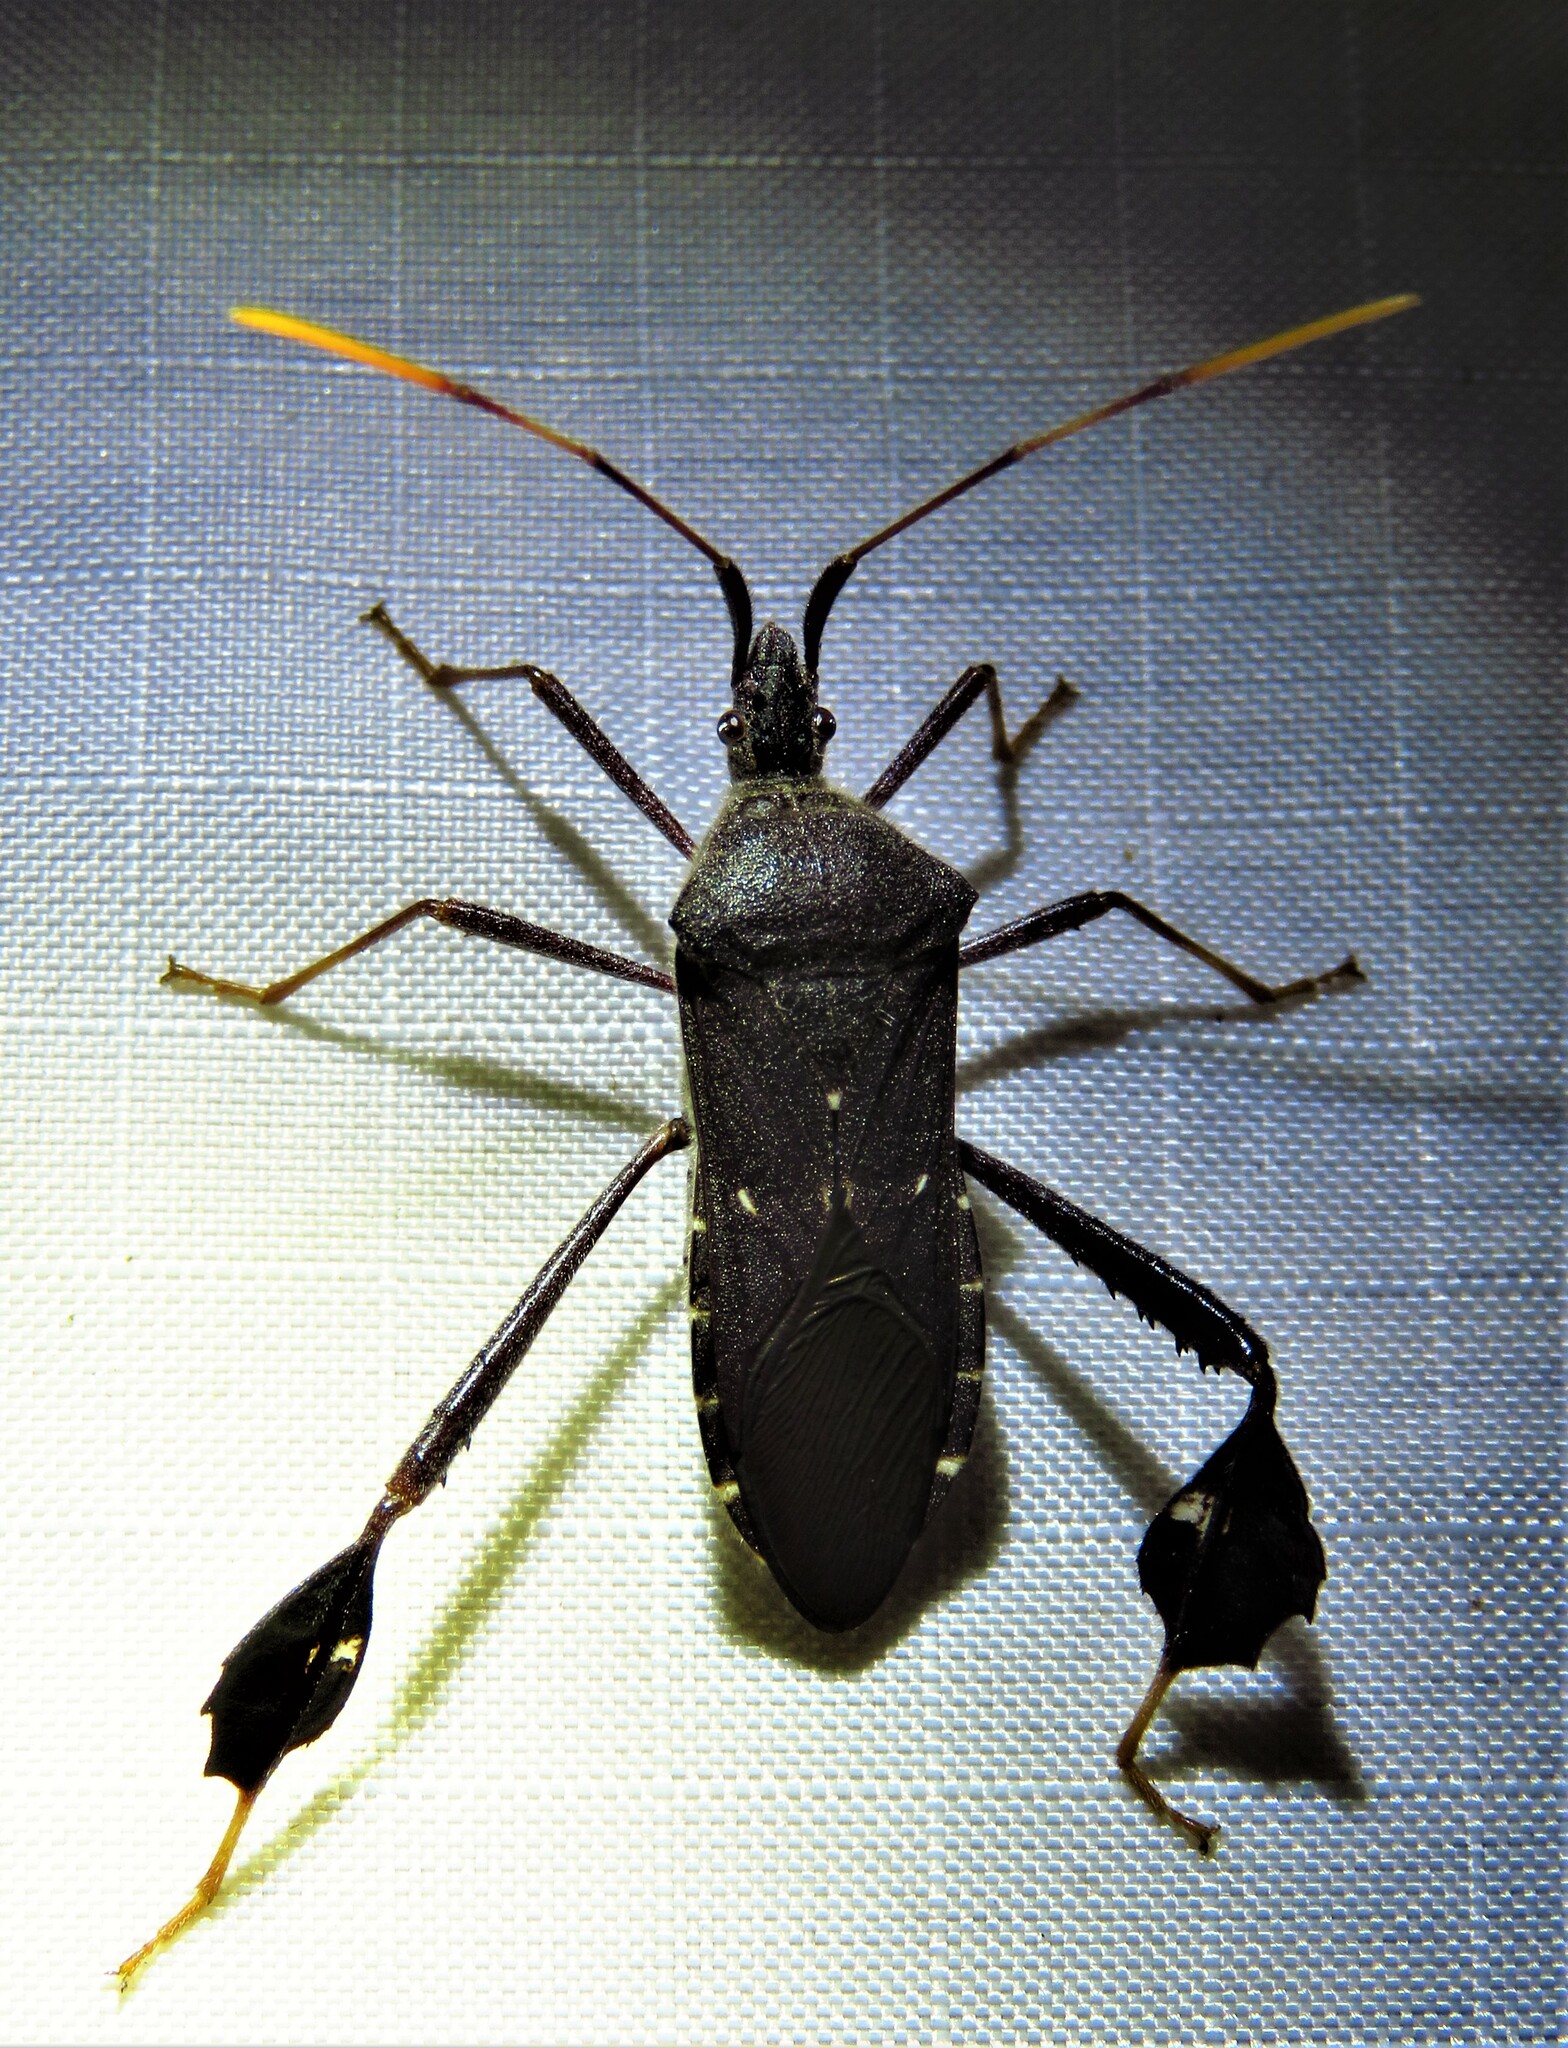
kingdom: Animalia
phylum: Arthropoda
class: Insecta
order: Hemiptera
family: Coreidae
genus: Leptoglossus
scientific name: Leptoglossus oppositus
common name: Northern leaf-footed bug
